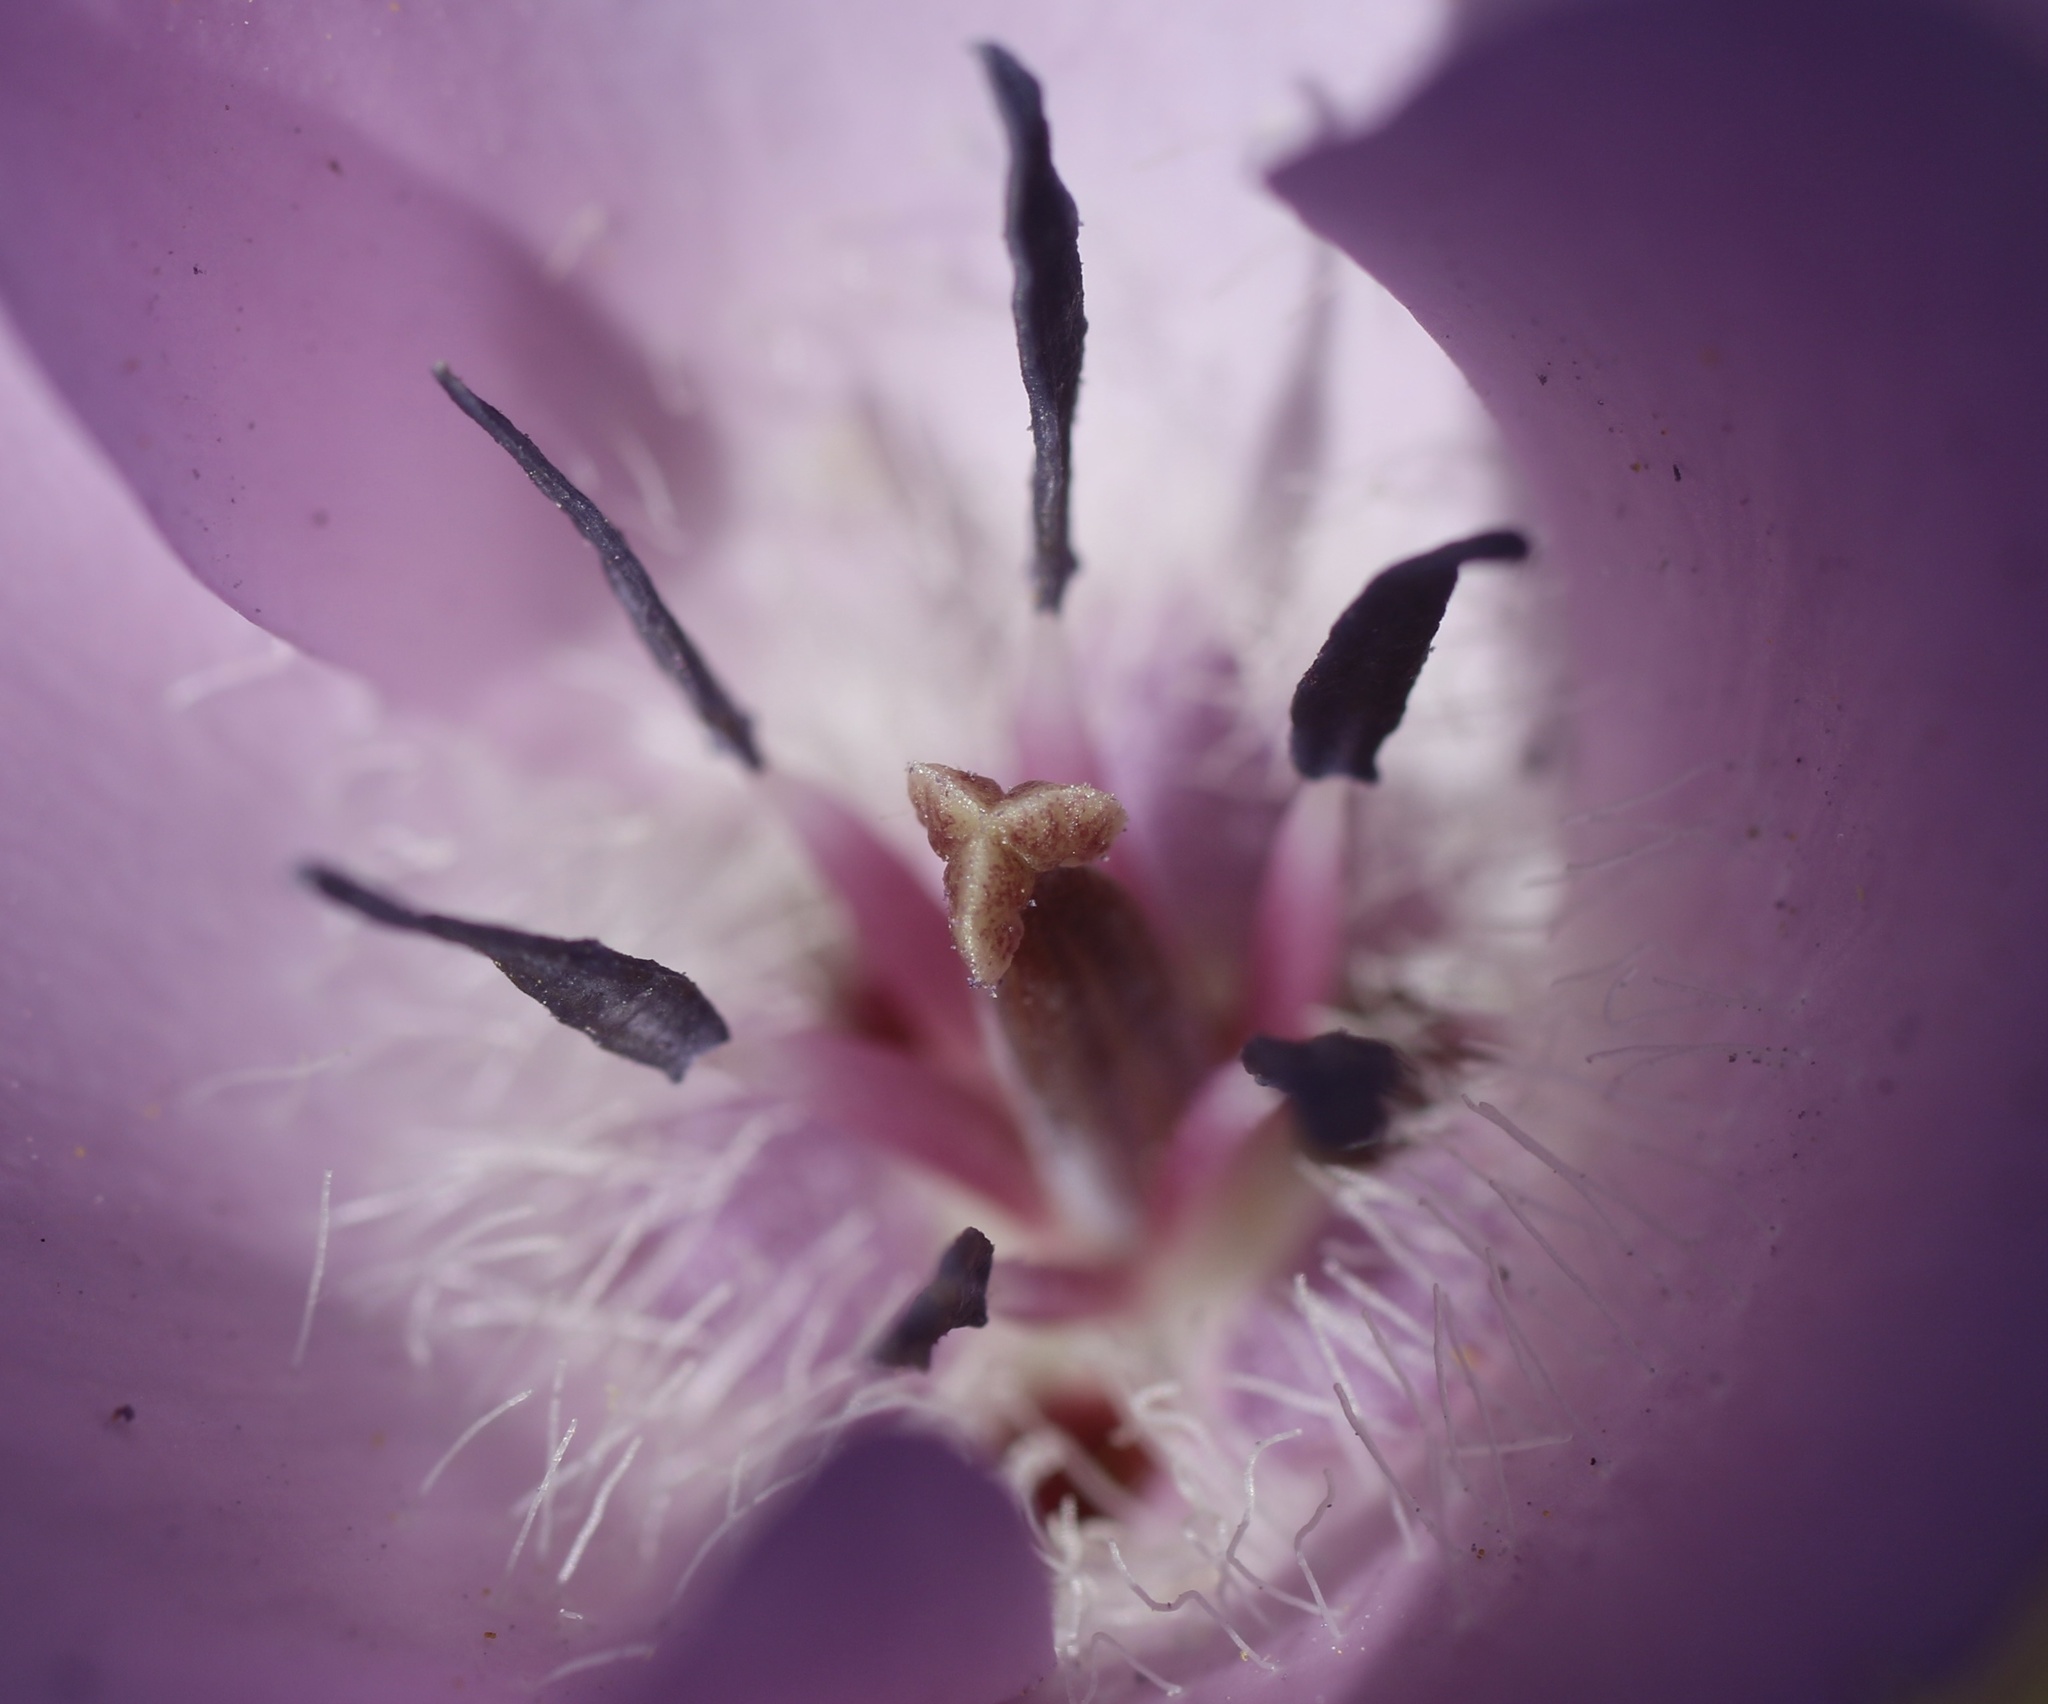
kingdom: Plantae
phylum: Tracheophyta
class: Liliopsida
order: Liliales
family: Liliaceae
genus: Calochortus
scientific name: Calochortus splendens
